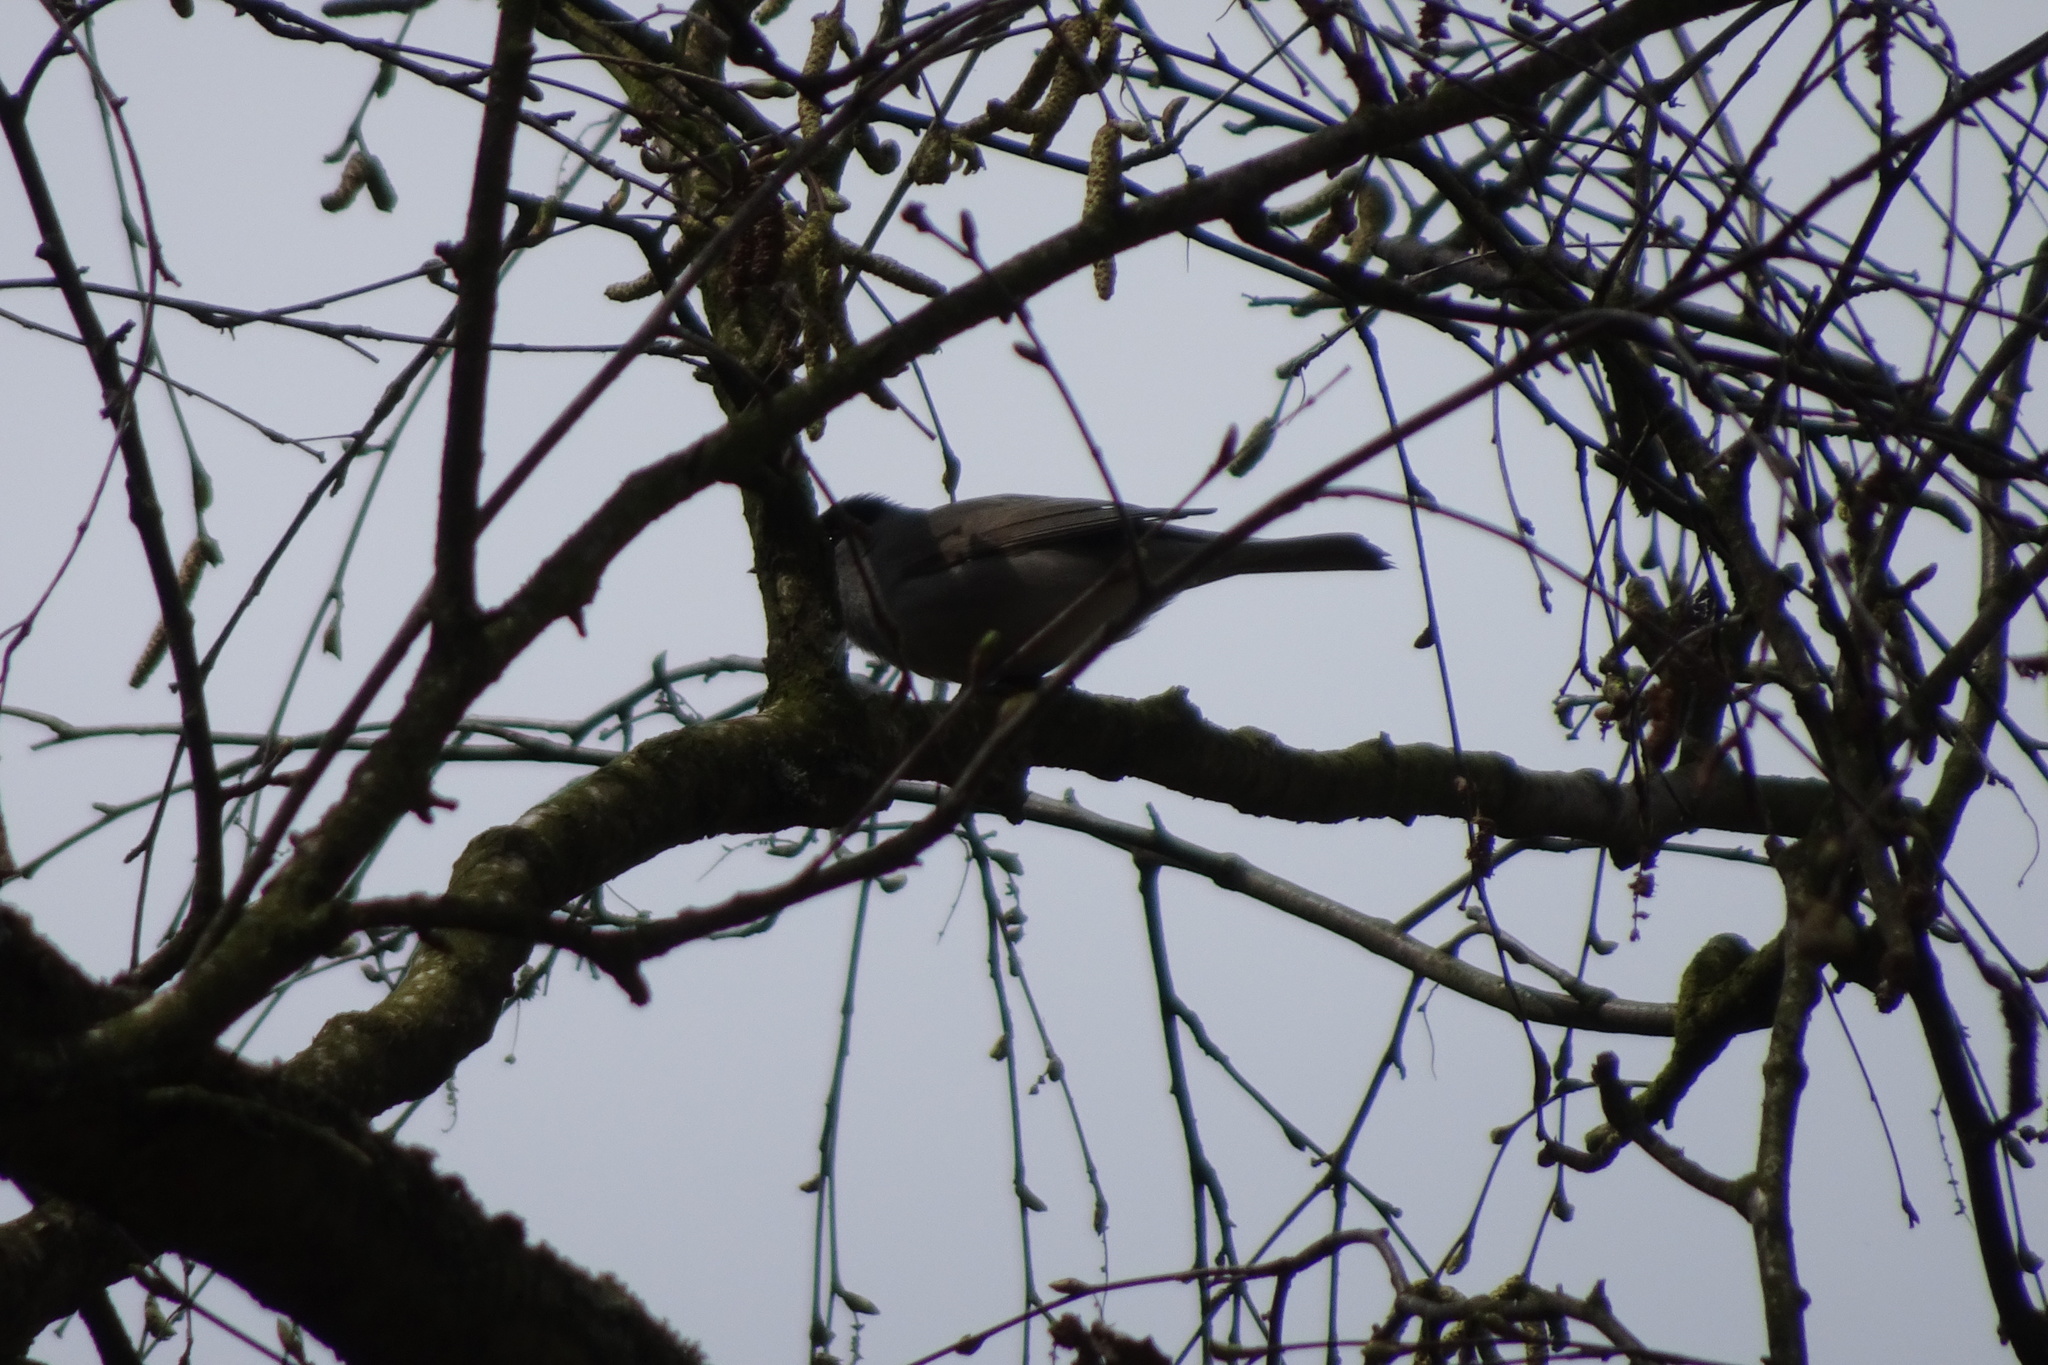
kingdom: Animalia
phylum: Chordata
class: Aves
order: Passeriformes
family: Sylviidae
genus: Sylvia
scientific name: Sylvia atricapilla
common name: Eurasian blackcap
